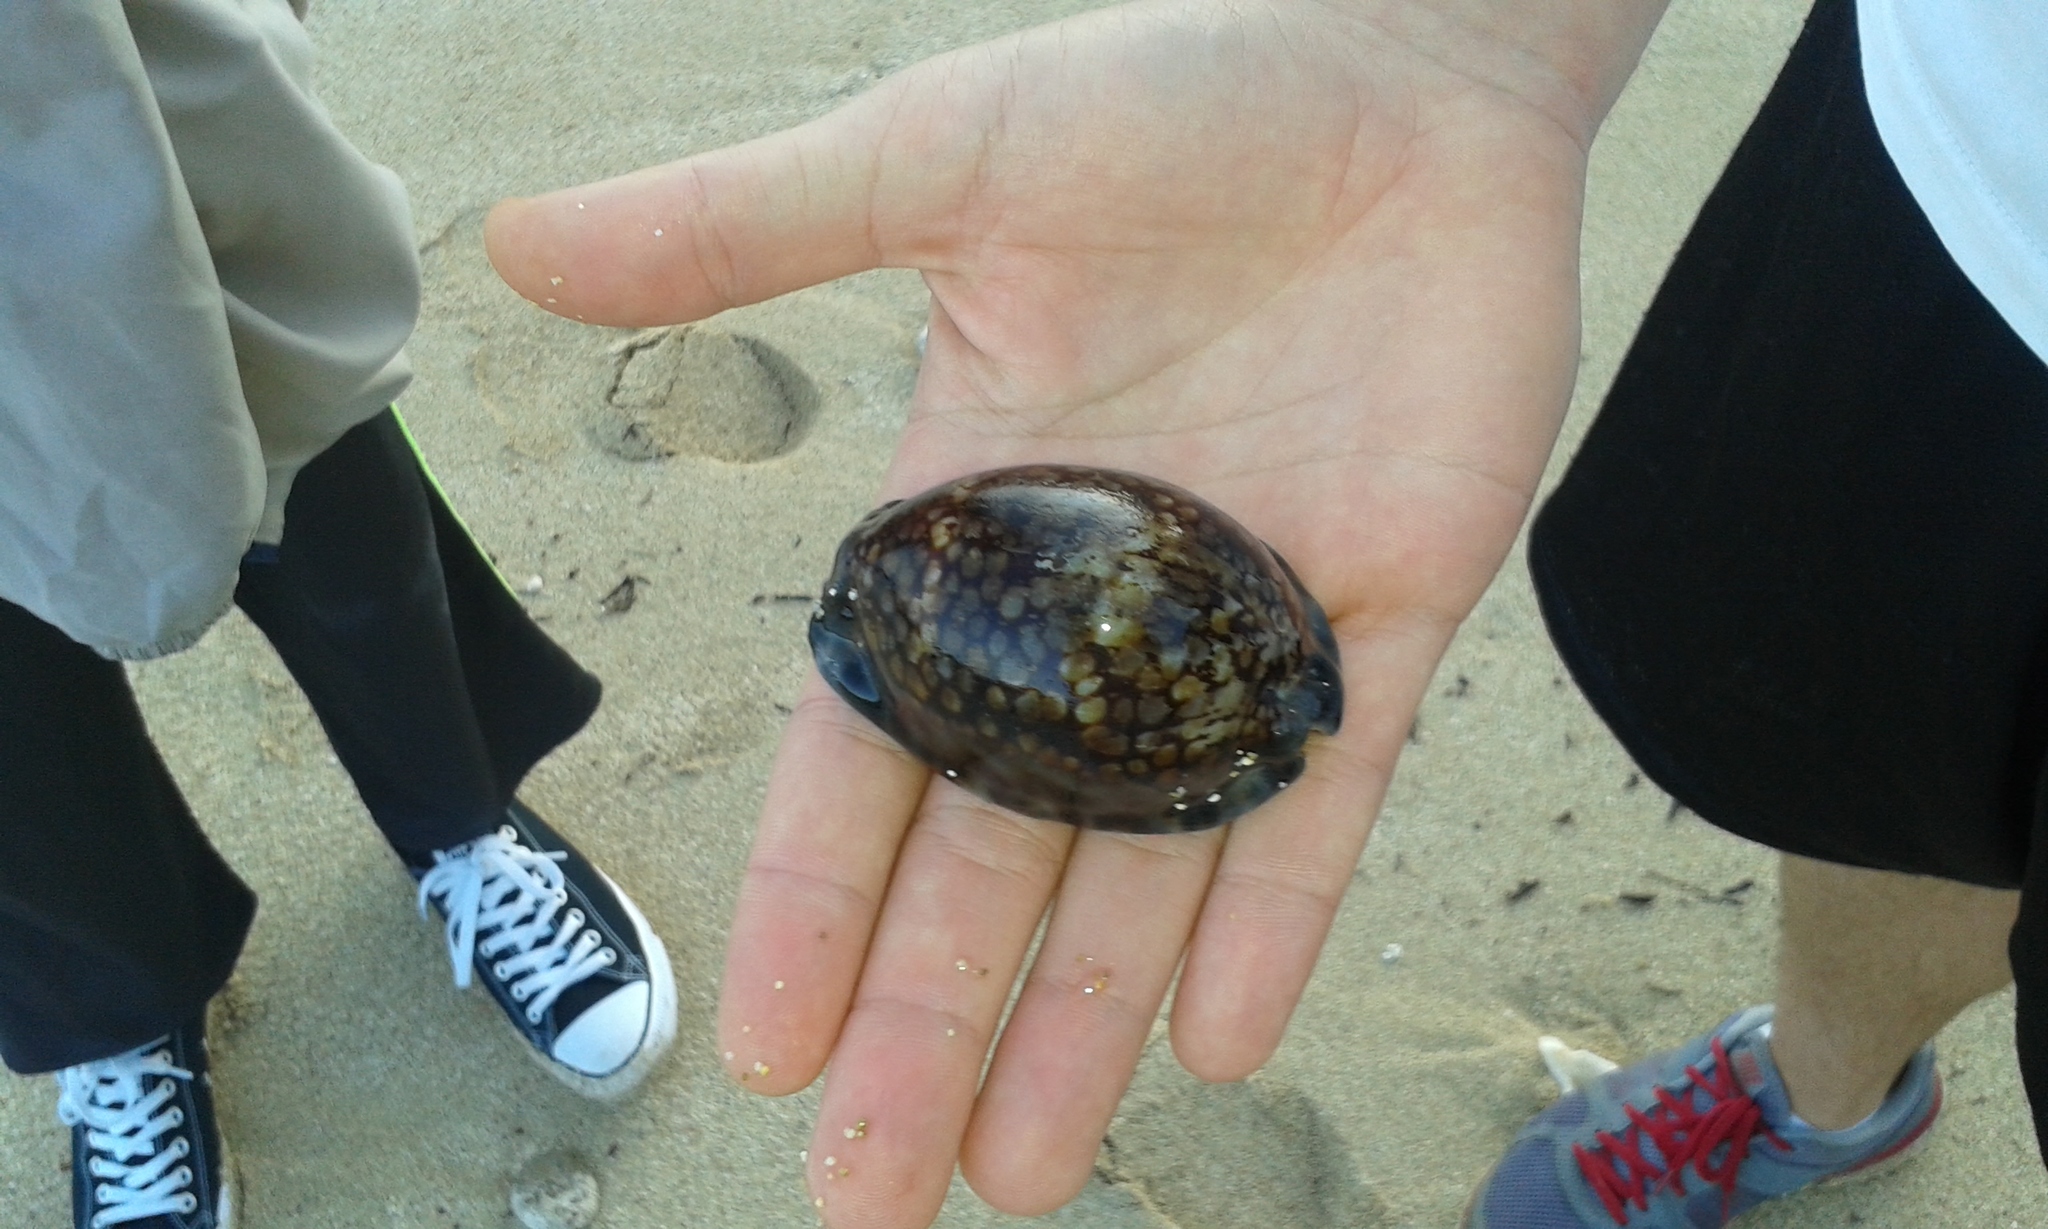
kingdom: Animalia
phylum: Mollusca
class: Gastropoda
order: Littorinimorpha
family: Cypraeidae
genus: Mauritia
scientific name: Mauritia maculifera
